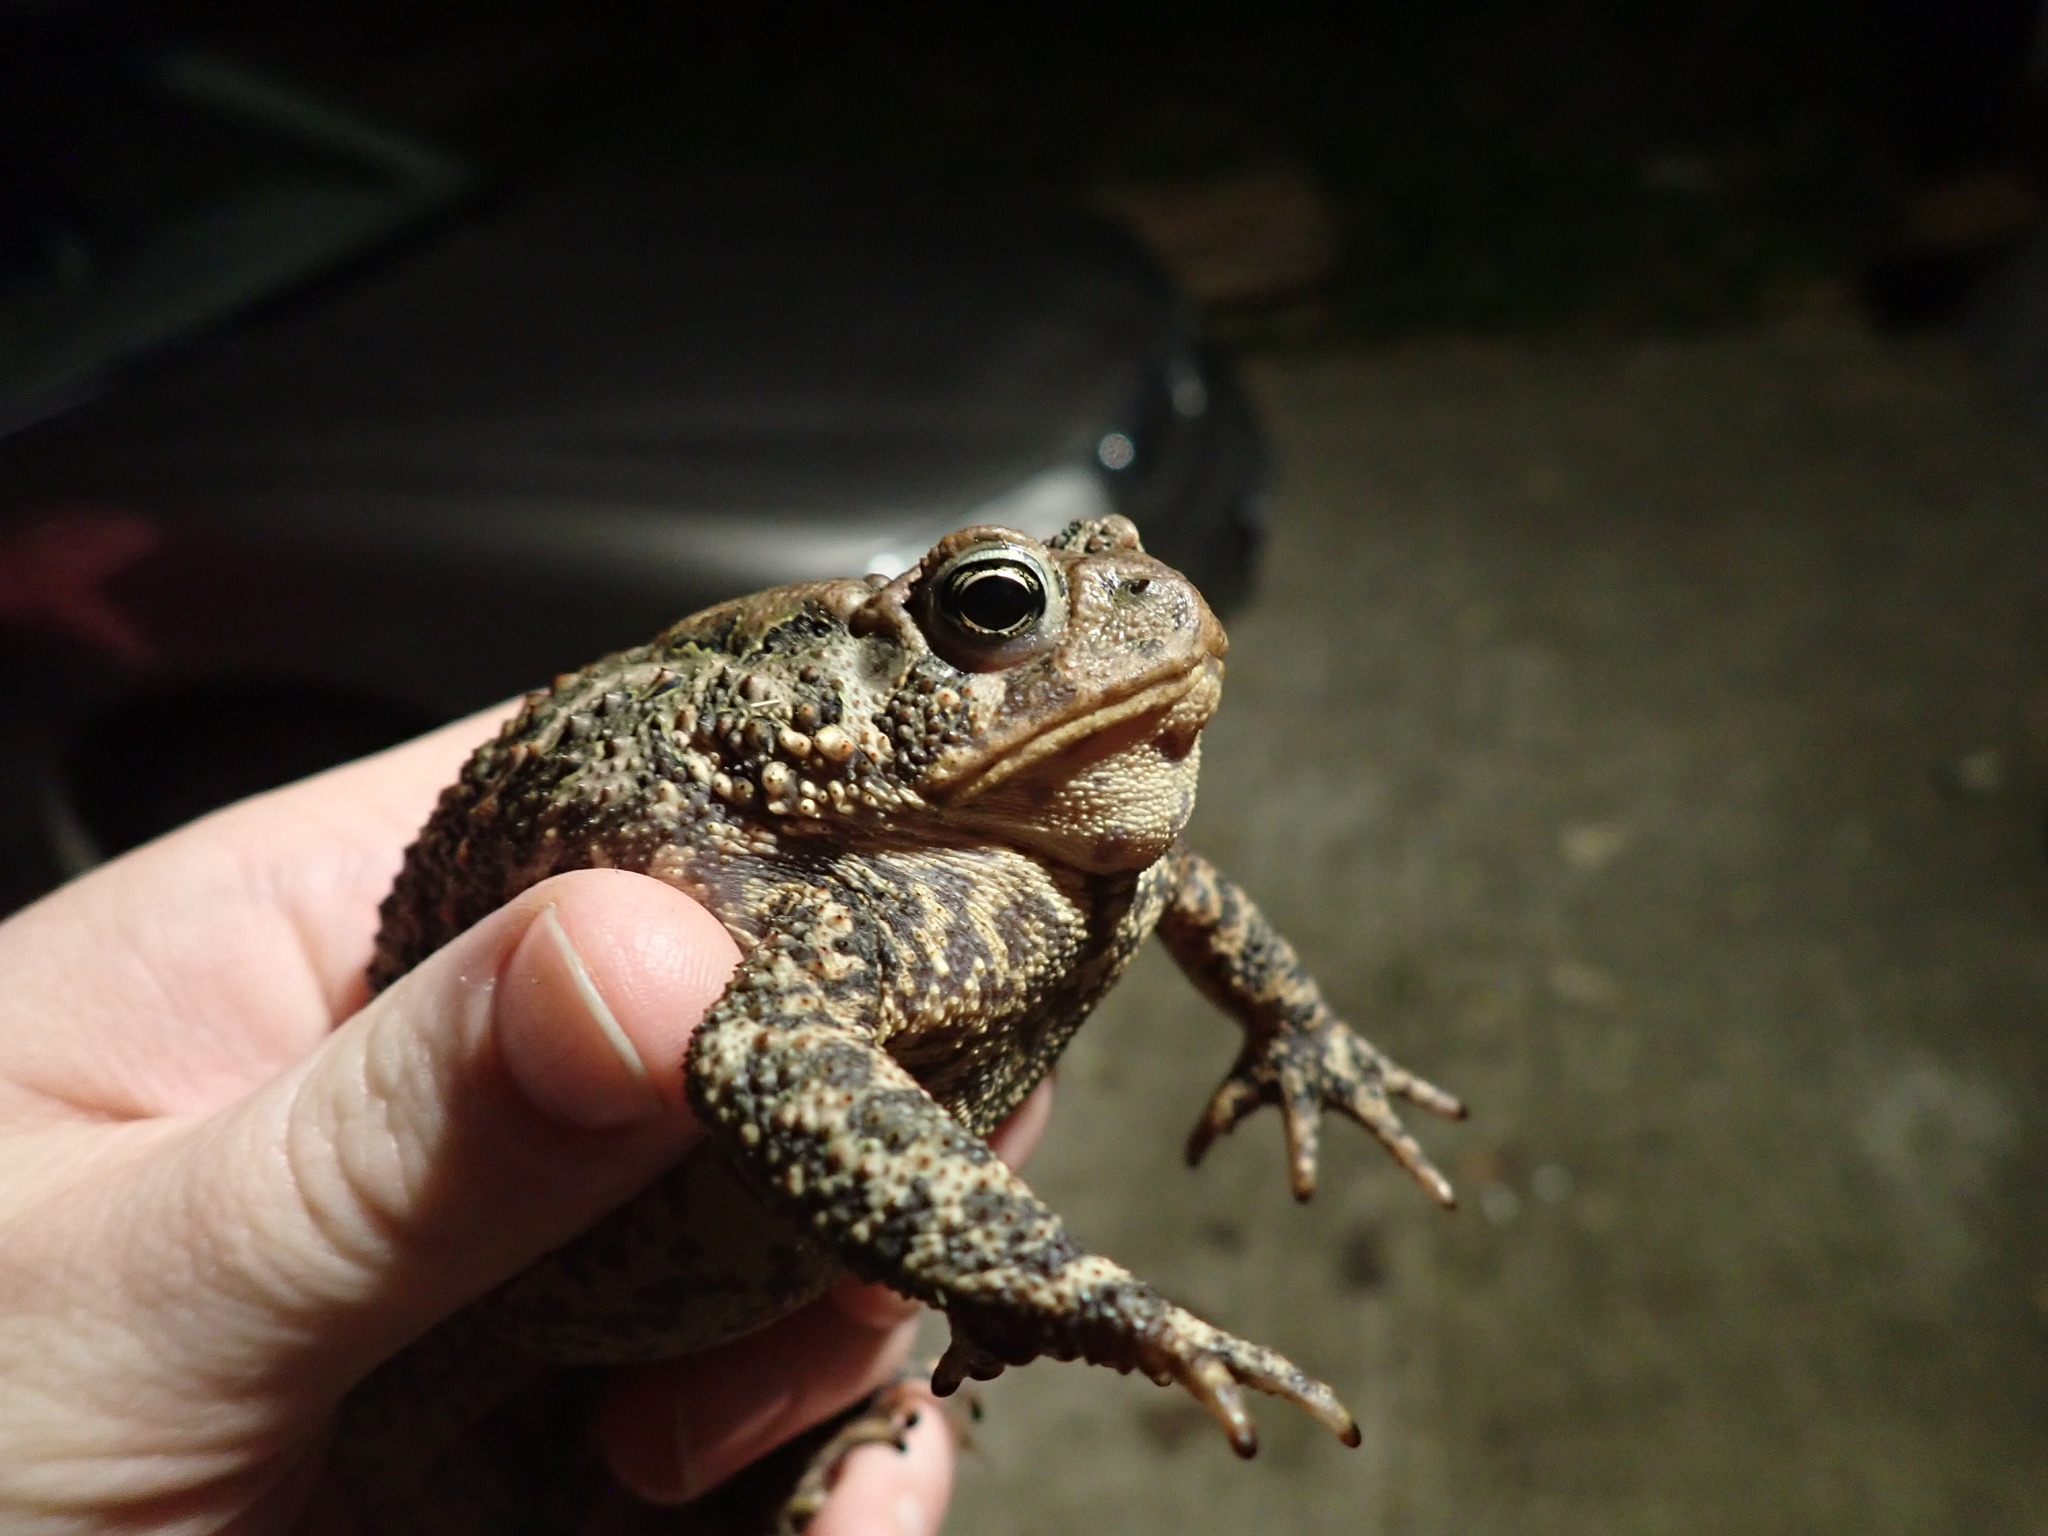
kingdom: Animalia
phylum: Chordata
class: Amphibia
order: Anura
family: Bufonidae
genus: Anaxyrus
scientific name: Anaxyrus americanus
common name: American toad
